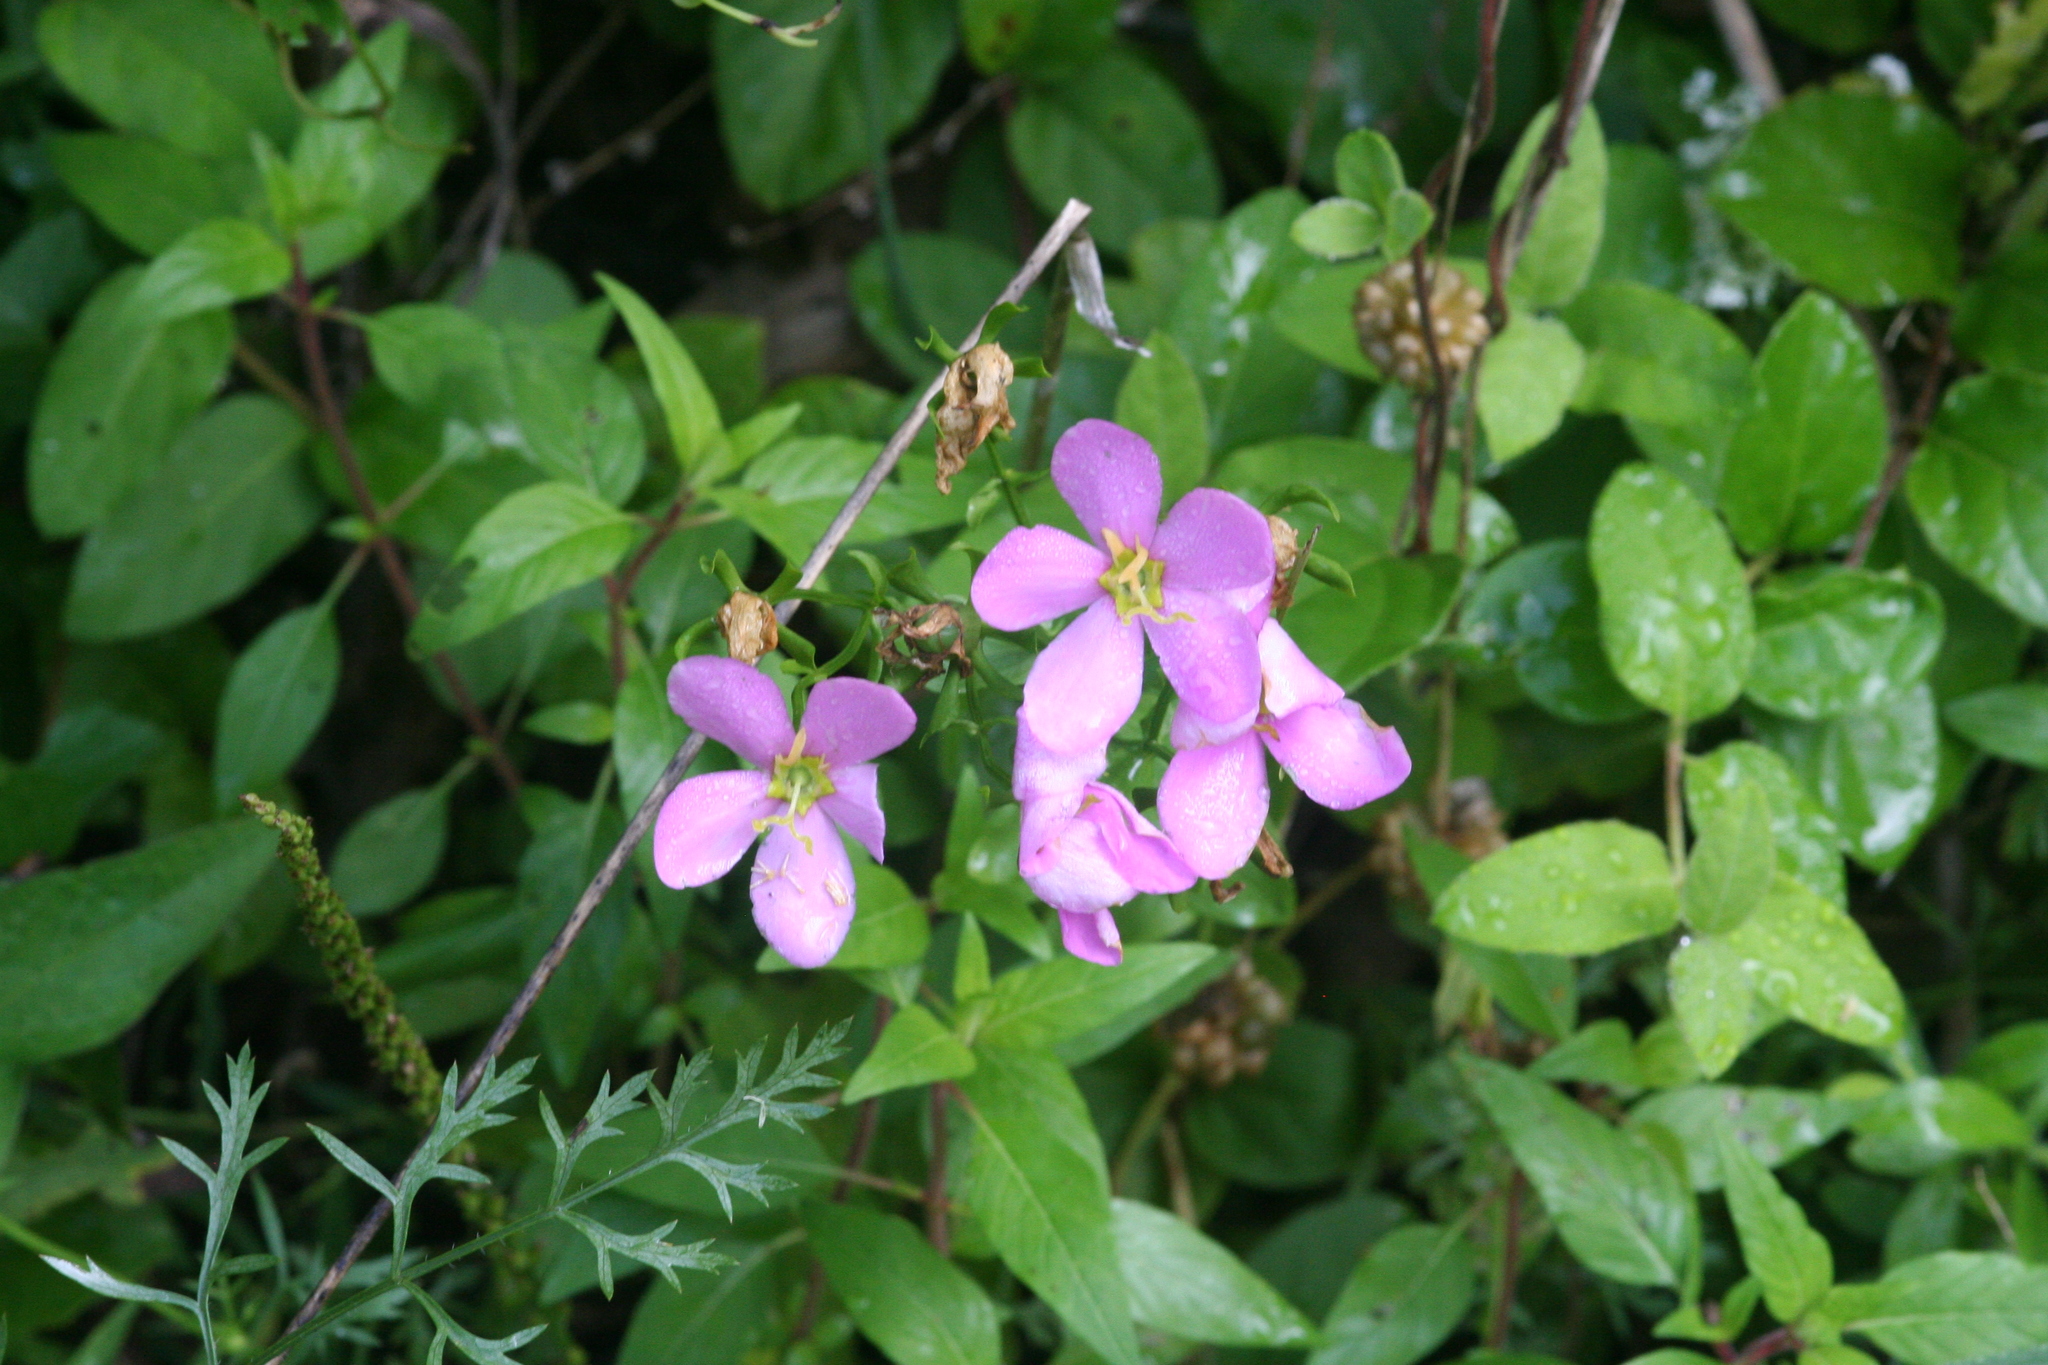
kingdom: Plantae
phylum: Tracheophyta
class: Magnoliopsida
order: Gentianales
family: Gentianaceae
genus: Sabatia
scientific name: Sabatia angularis
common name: Rose-pink
